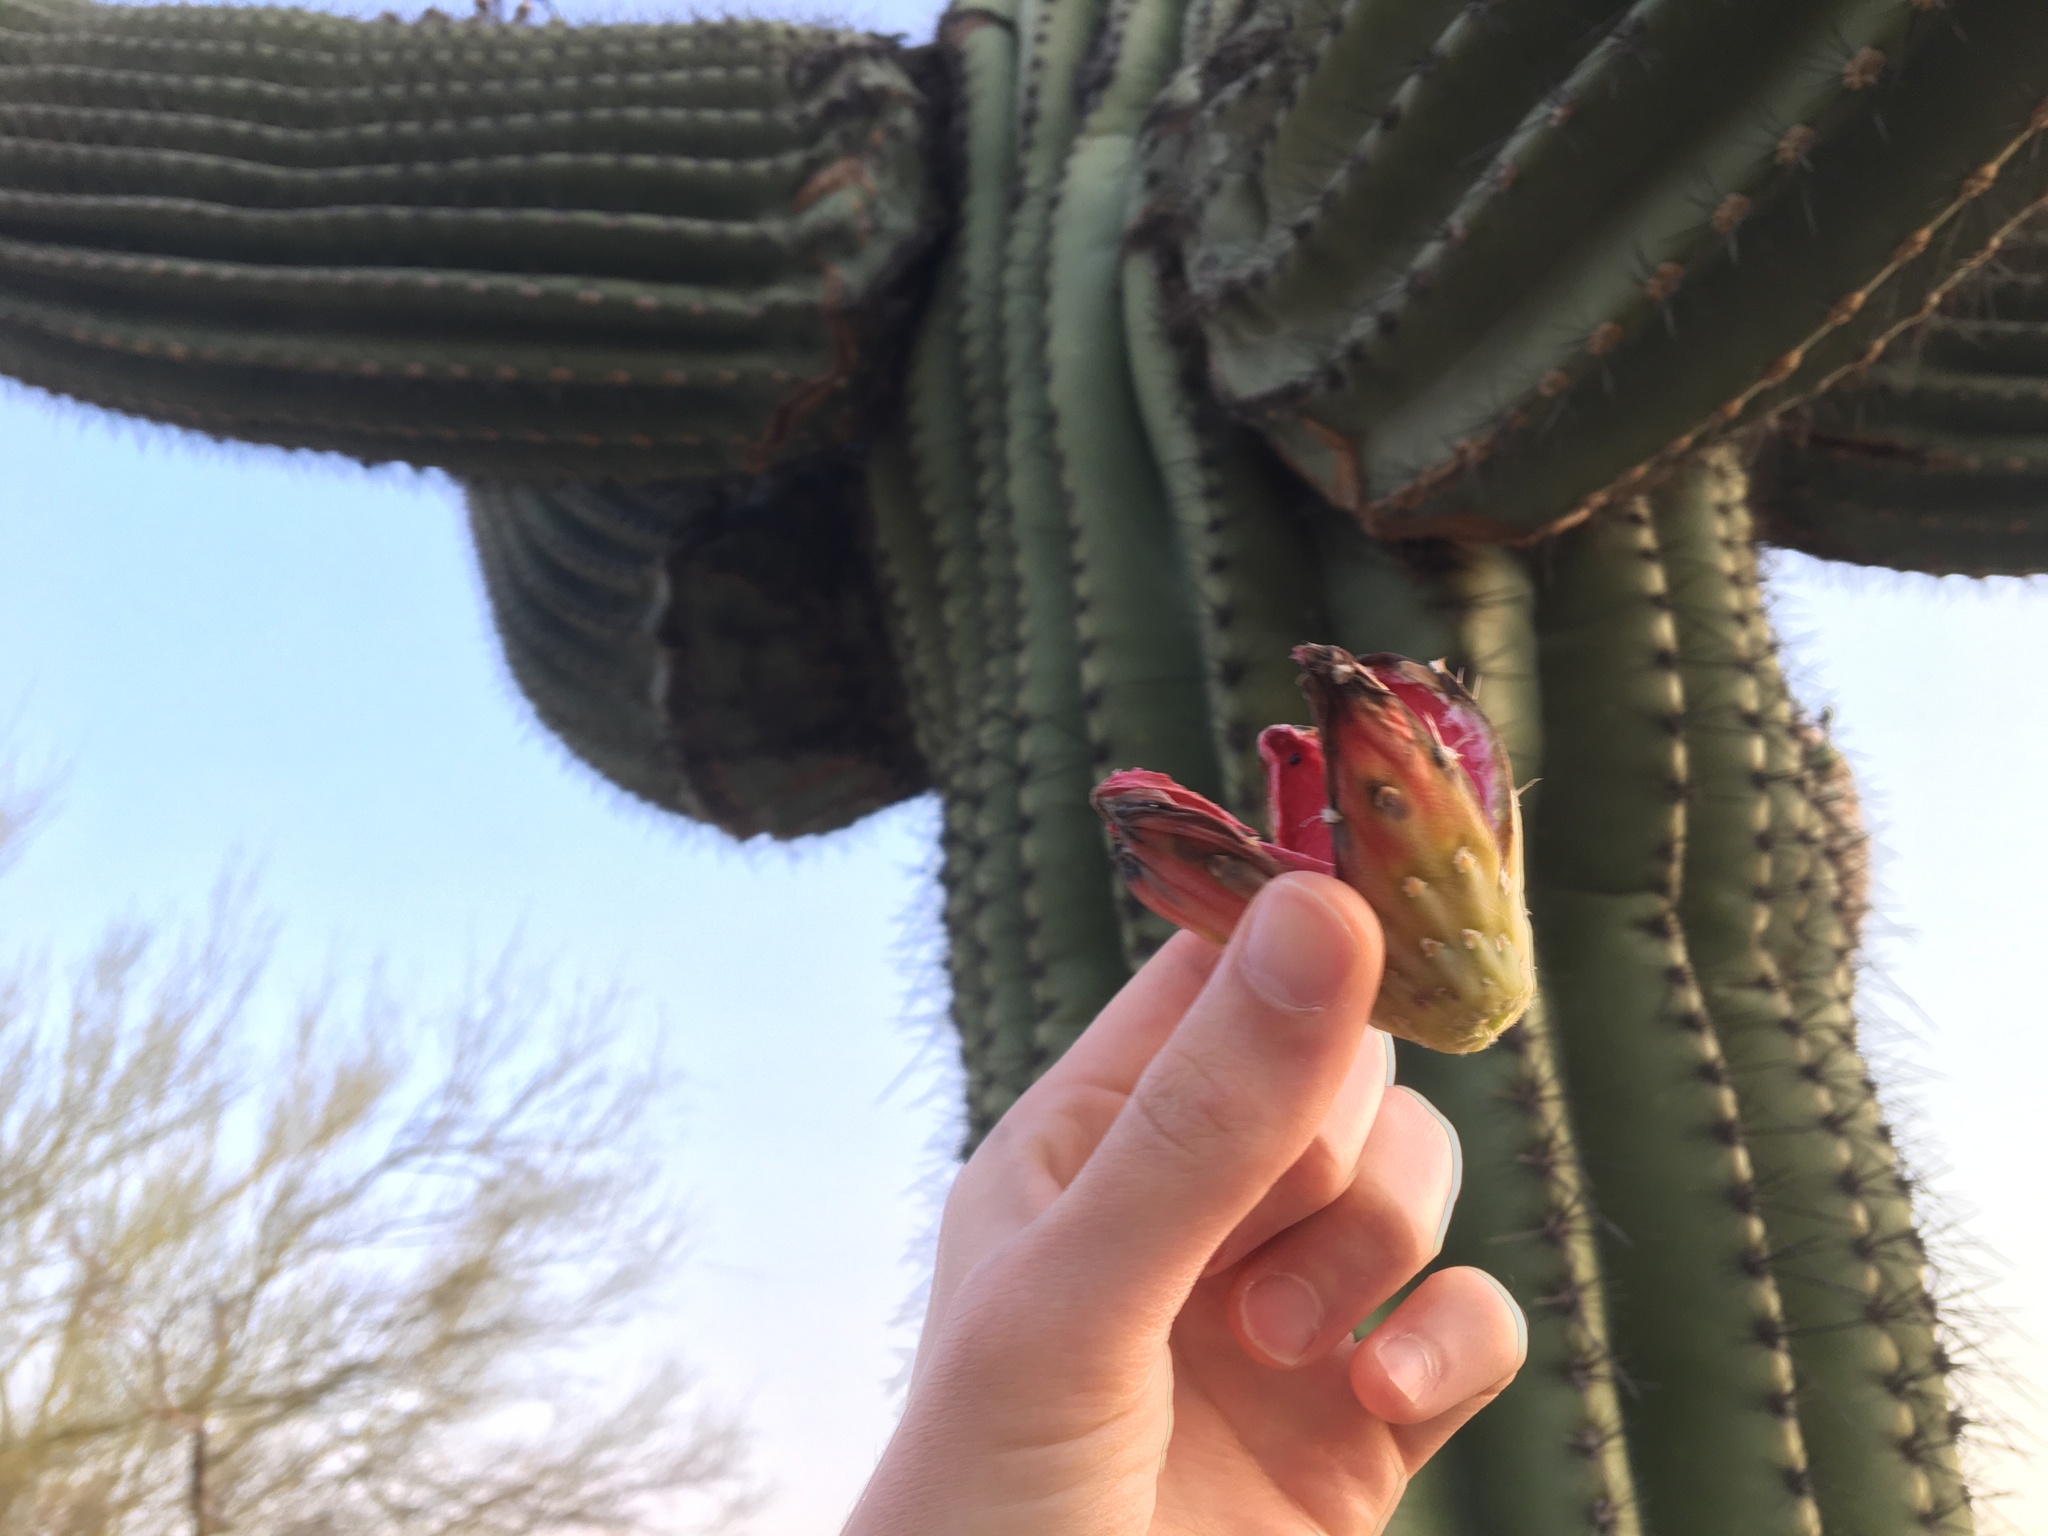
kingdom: Plantae
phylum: Tracheophyta
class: Magnoliopsida
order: Caryophyllales
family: Cactaceae
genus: Carnegiea
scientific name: Carnegiea gigantea
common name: Saguaro
